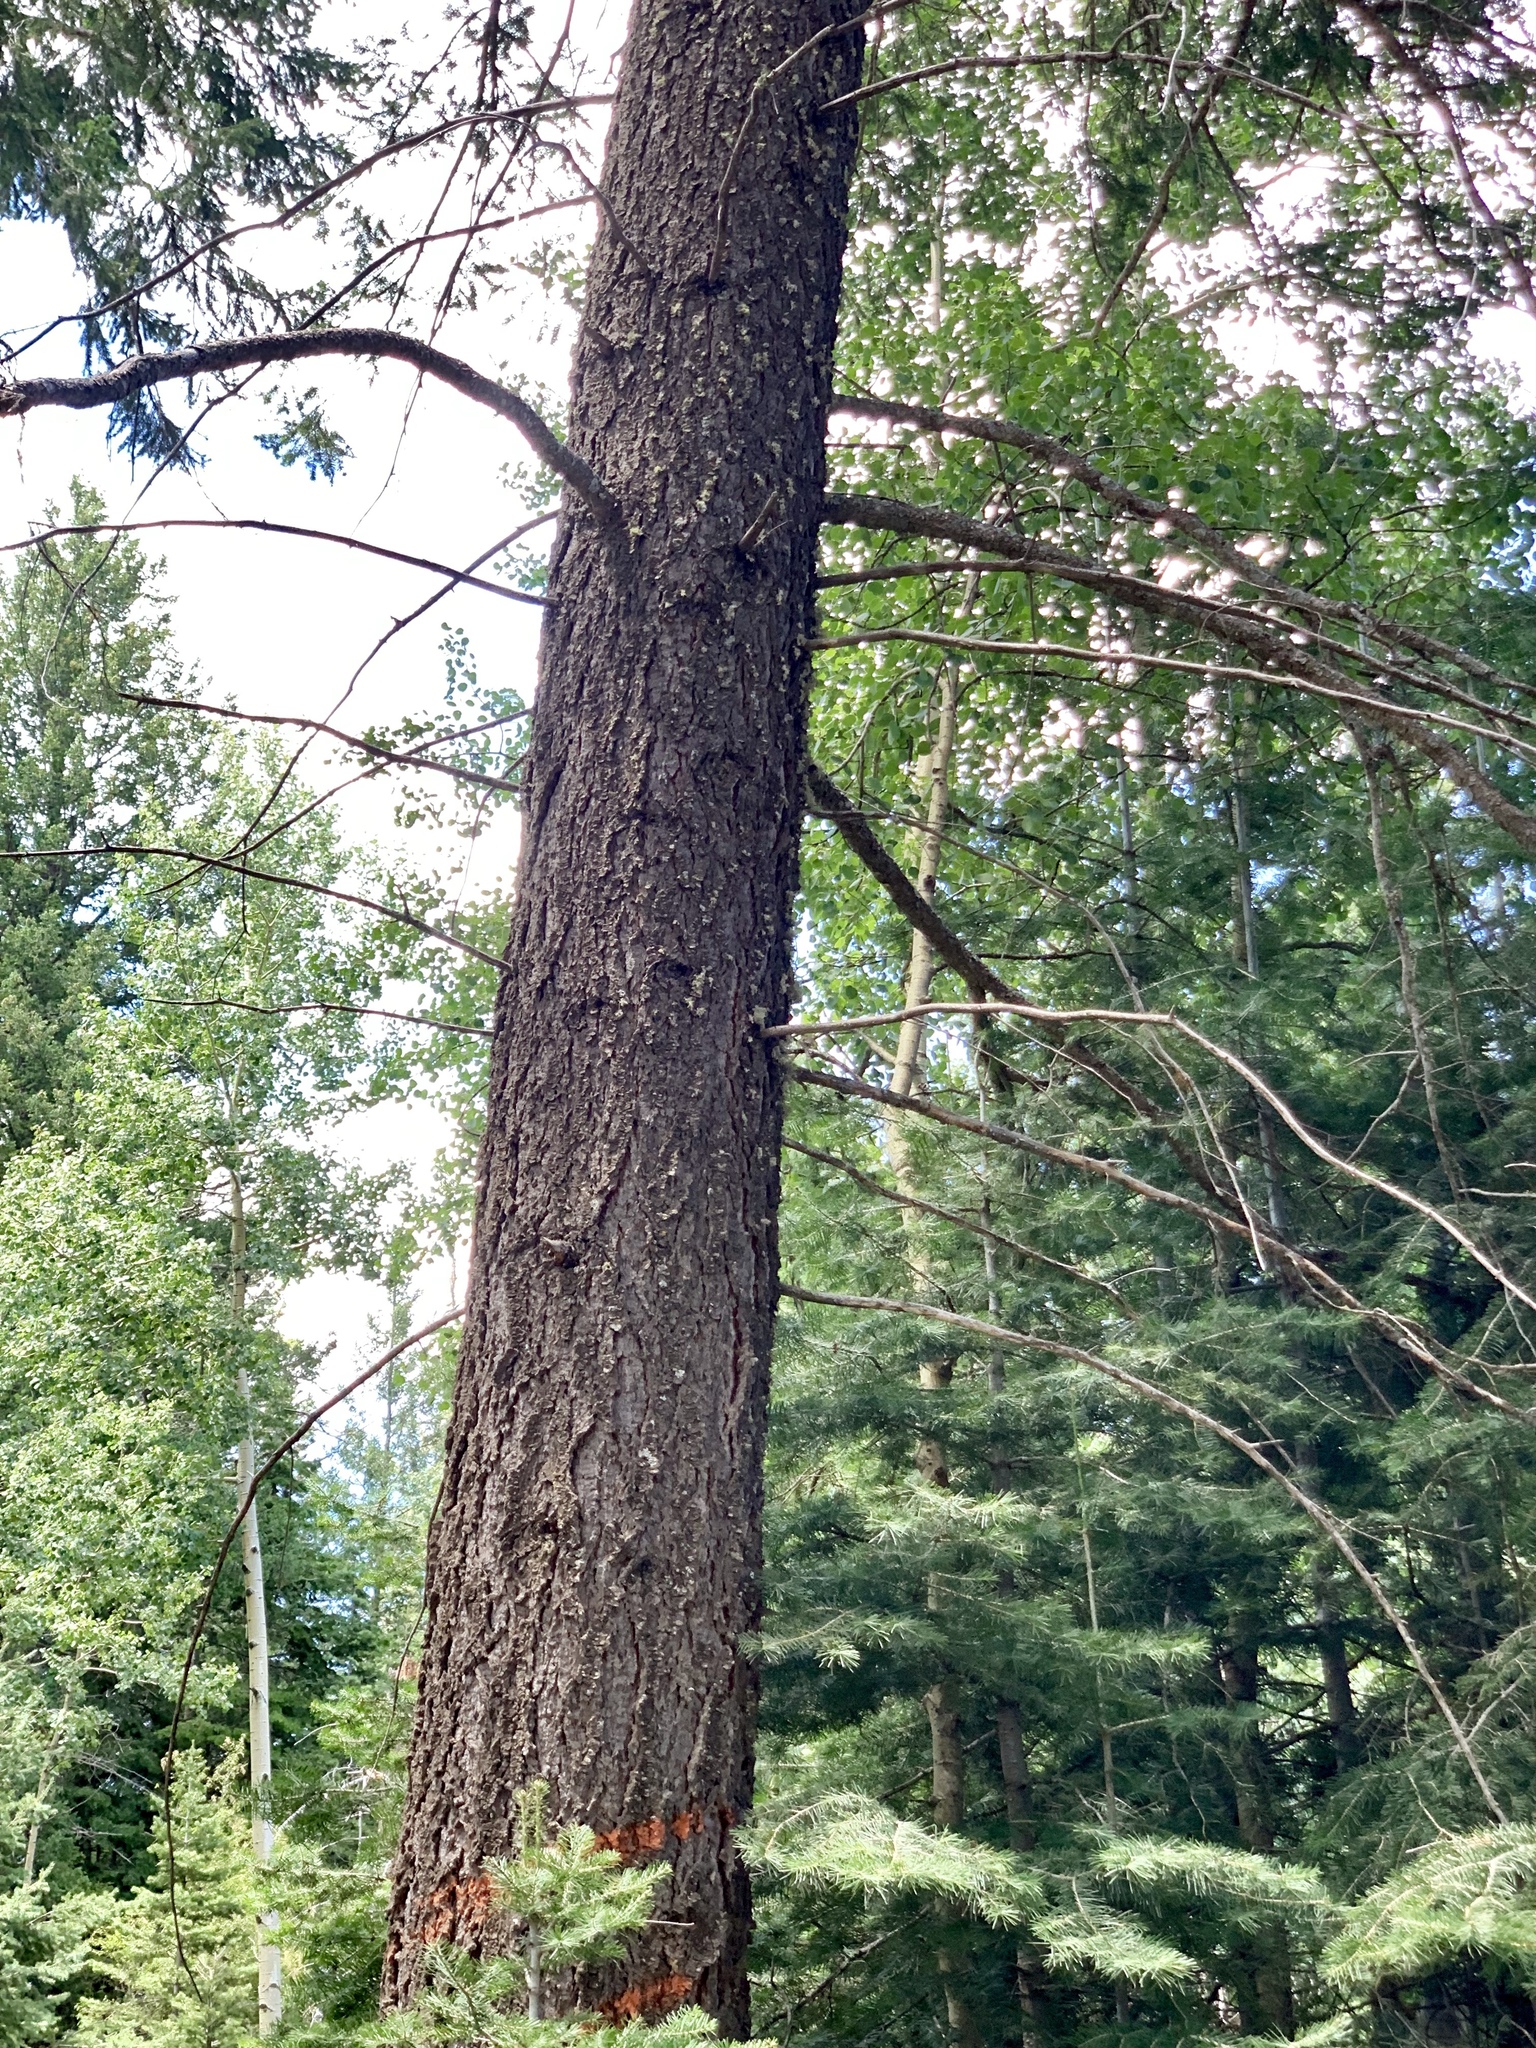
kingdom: Plantae
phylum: Tracheophyta
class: Pinopsida
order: Pinales
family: Pinaceae
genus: Pseudotsuga
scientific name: Pseudotsuga menziesii
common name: Douglas fir
